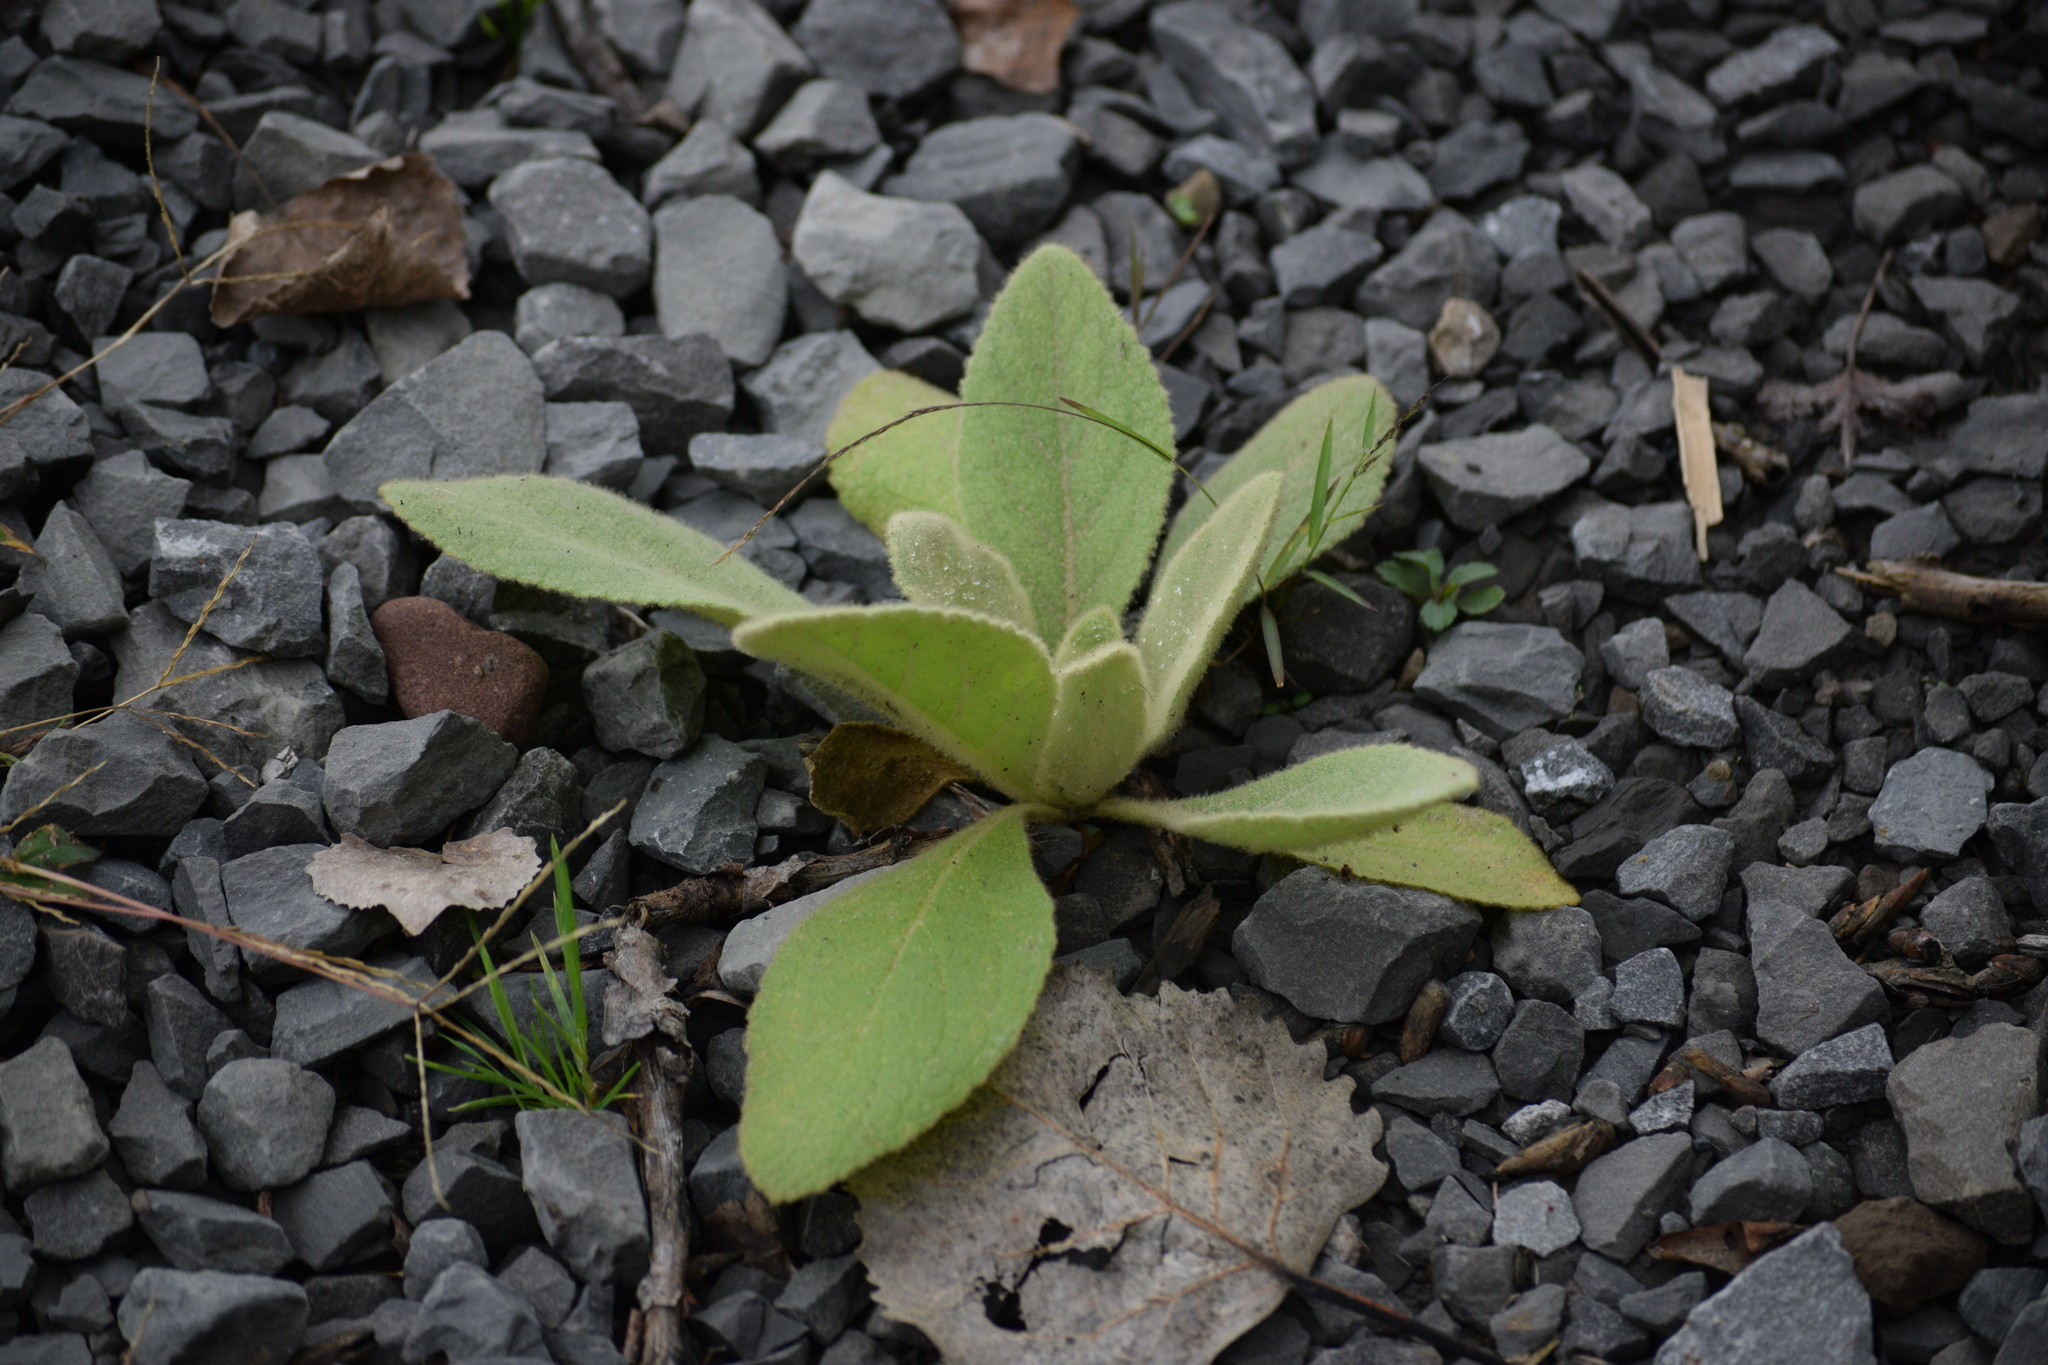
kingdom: Plantae
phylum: Tracheophyta
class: Magnoliopsida
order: Lamiales
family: Scrophulariaceae
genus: Verbascum
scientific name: Verbascum thapsus
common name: Common mullein
